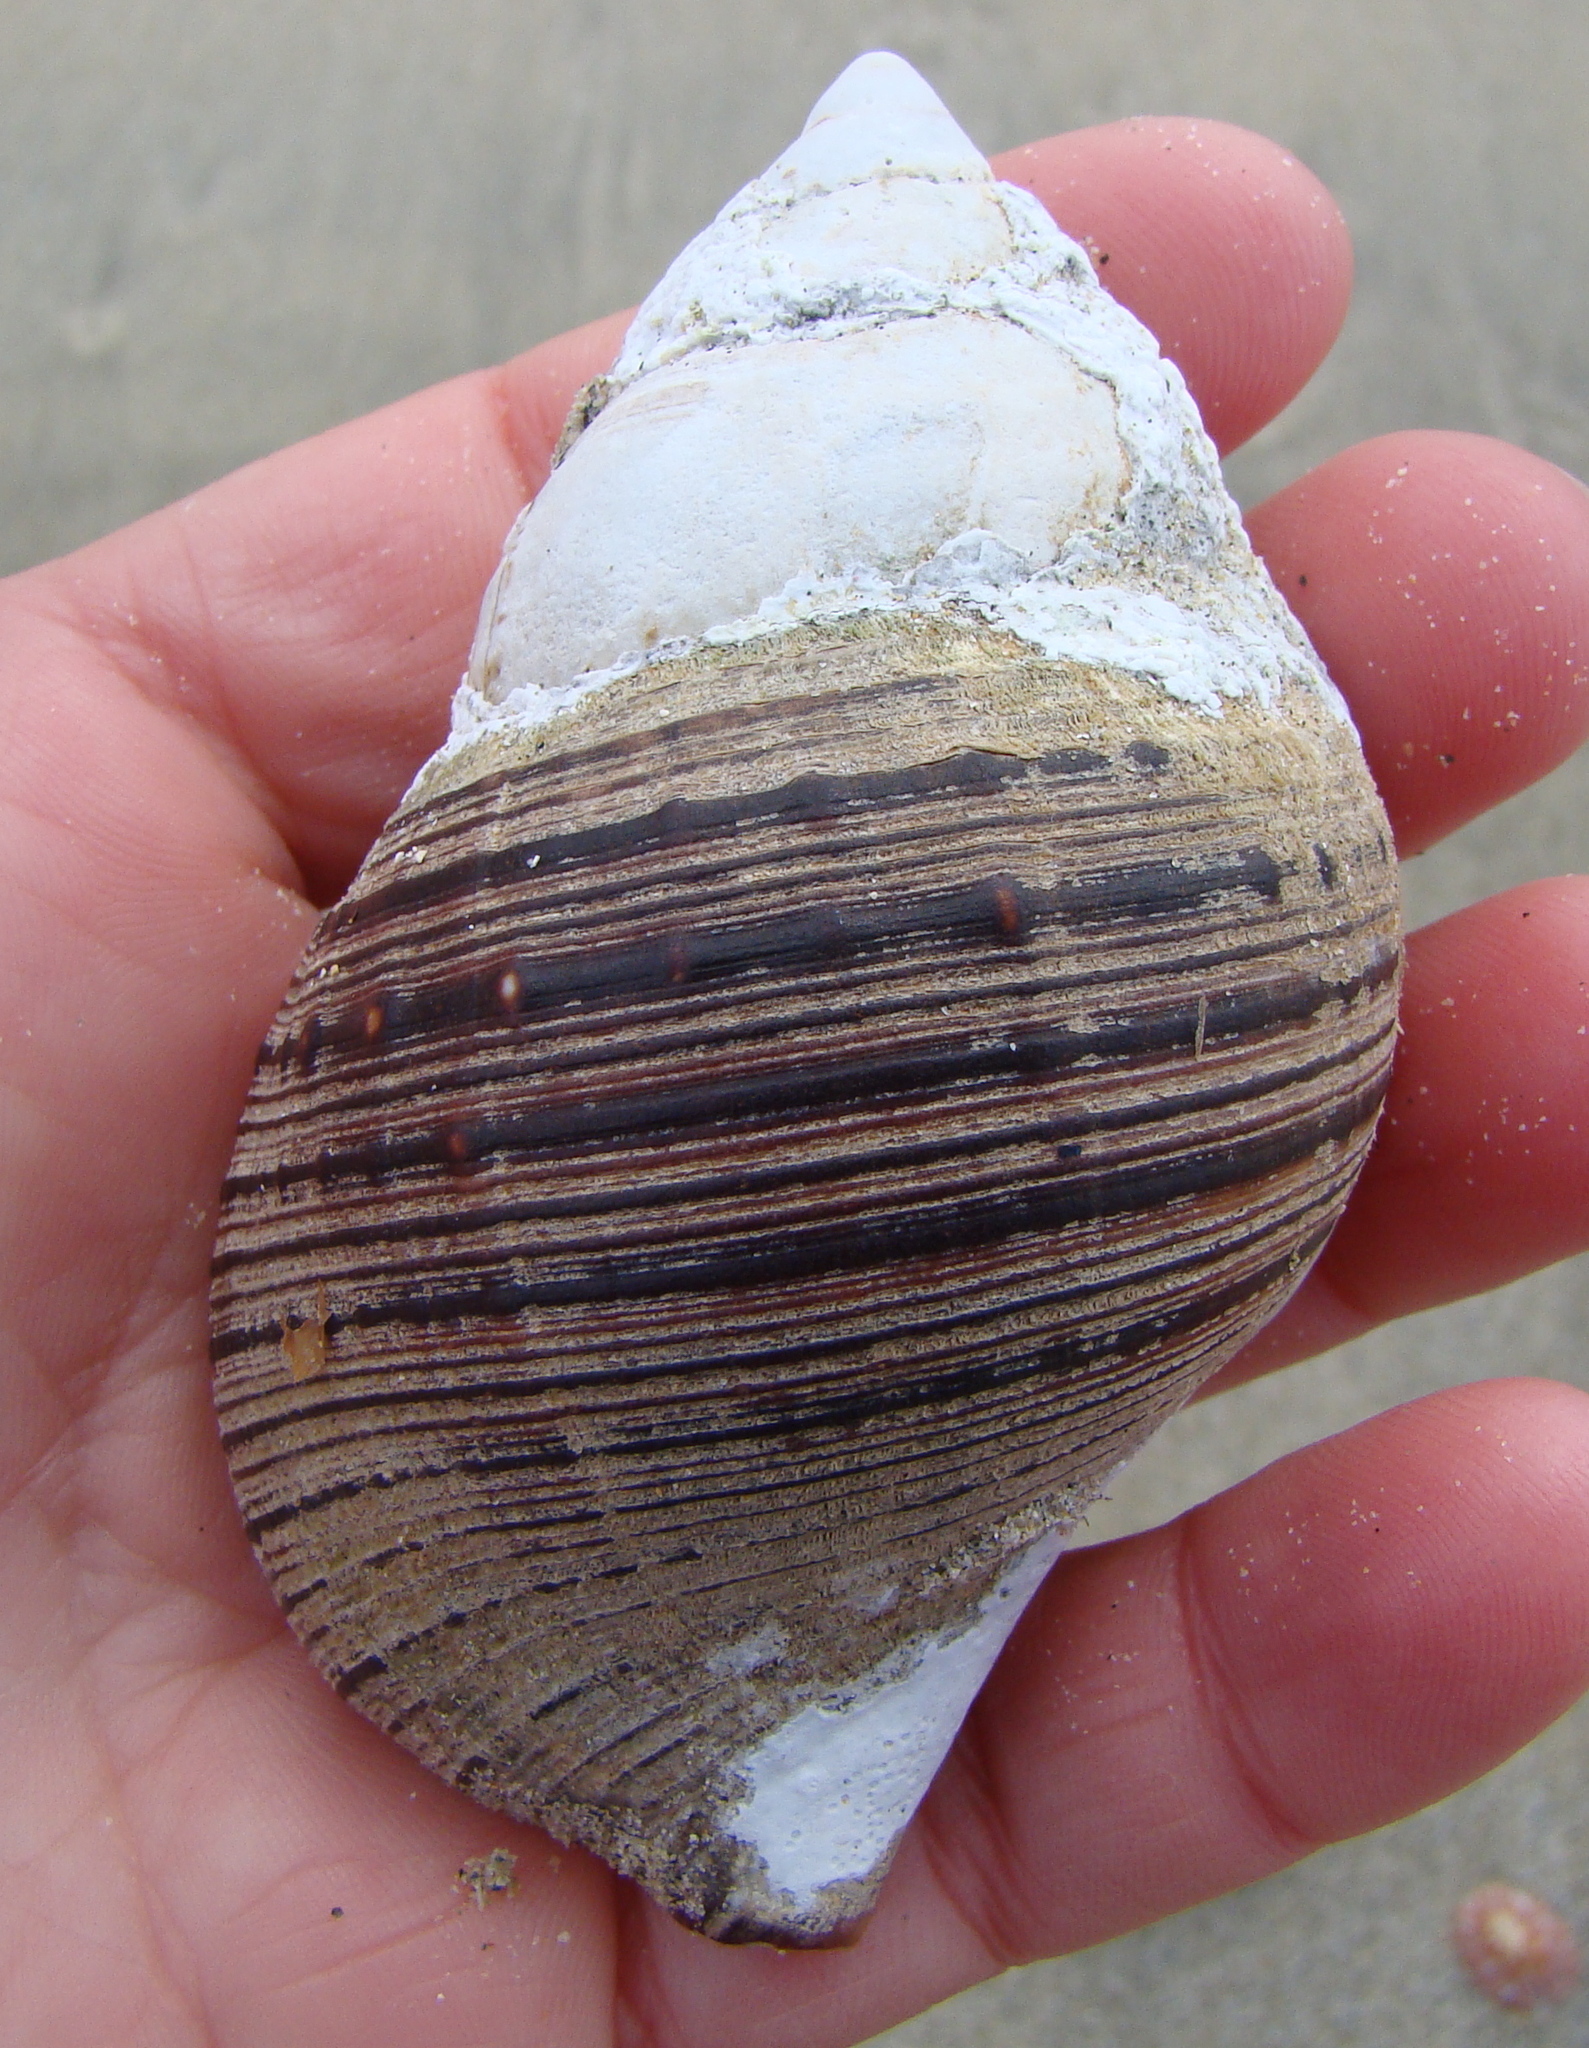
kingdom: Animalia
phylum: Mollusca
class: Gastropoda
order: Littorinimorpha
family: Cymatiidae
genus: Argobuccinum
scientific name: Argobuccinum pustulosum
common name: Pustular triton
